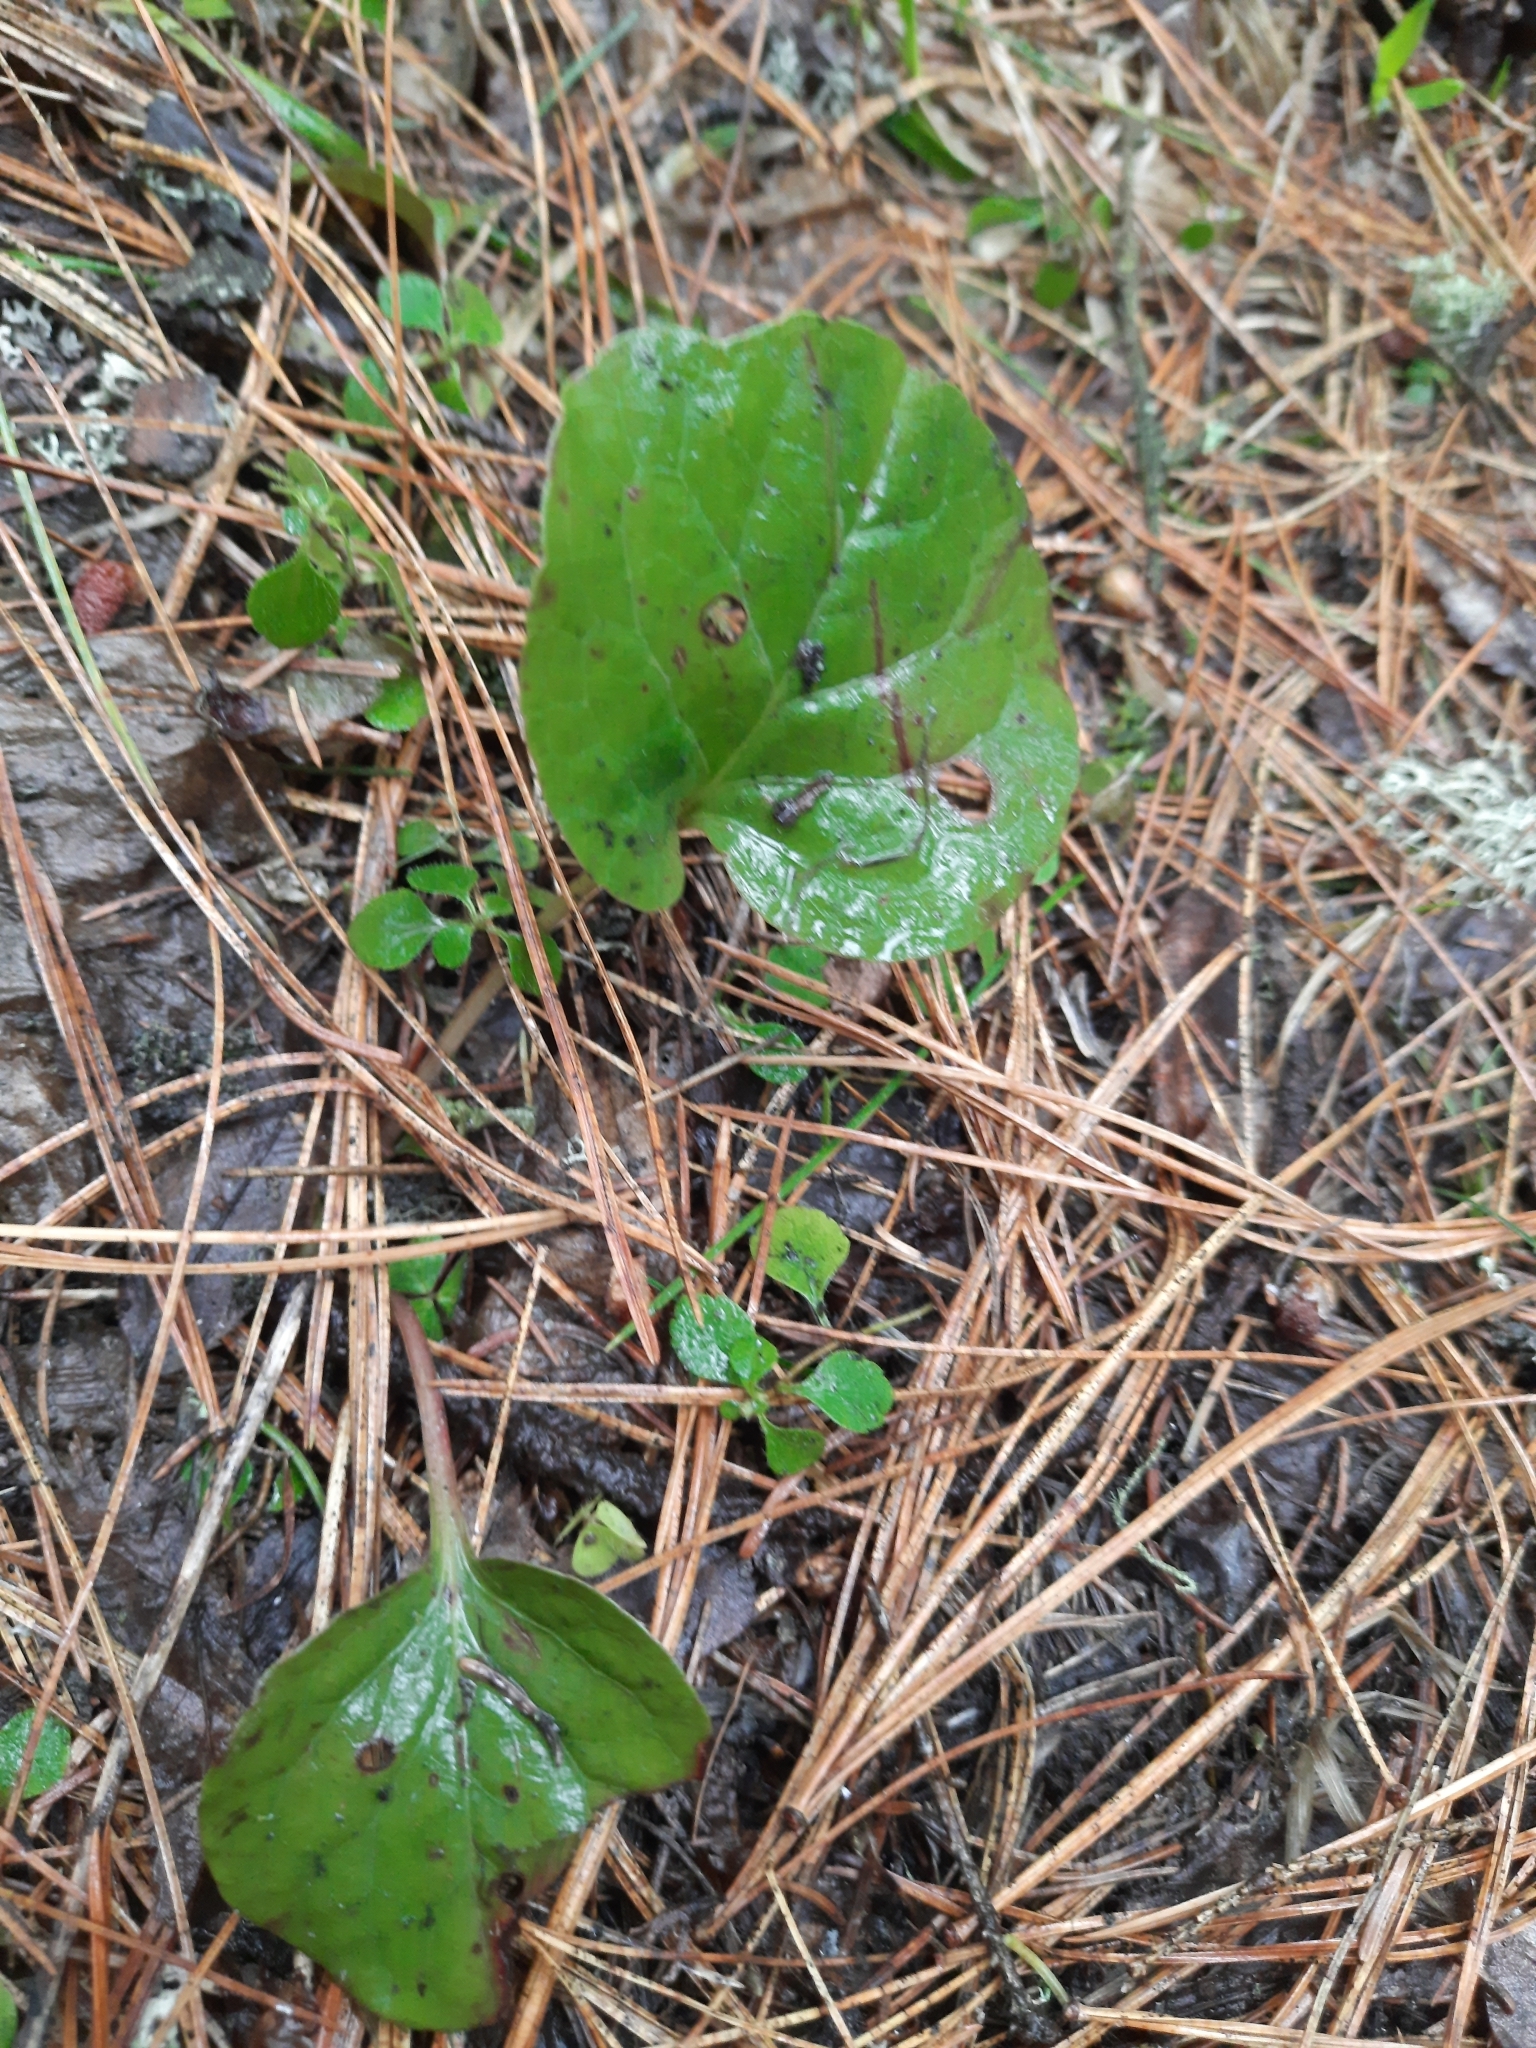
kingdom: Plantae
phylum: Tracheophyta
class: Magnoliopsida
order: Ericales
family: Ericaceae
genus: Pyrola
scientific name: Pyrola rotundifolia
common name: Round-leaved wintergreen
